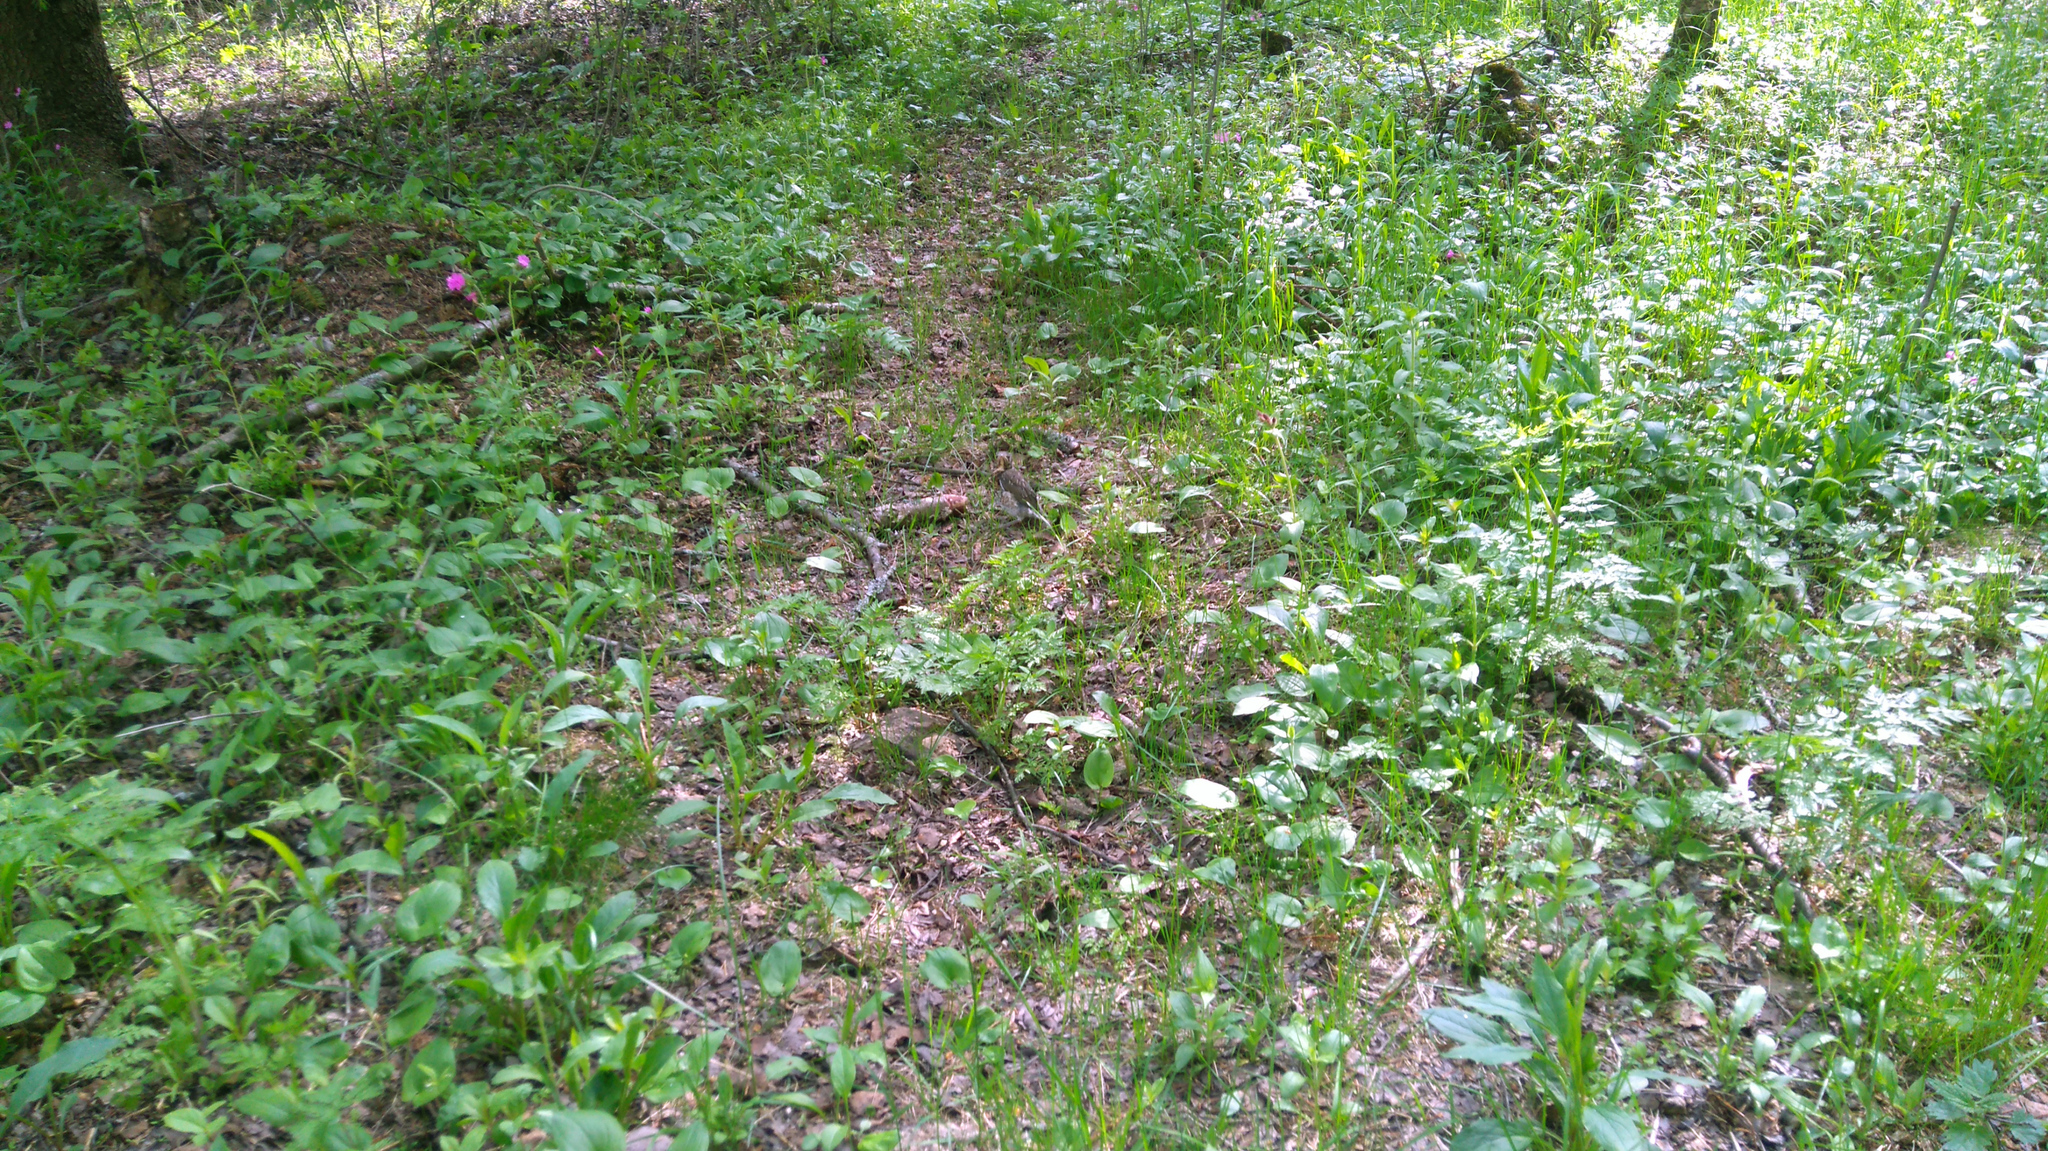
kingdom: Animalia
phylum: Chordata
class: Aves
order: Passeriformes
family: Turdidae
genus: Turdus
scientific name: Turdus pilaris
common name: Fieldfare
